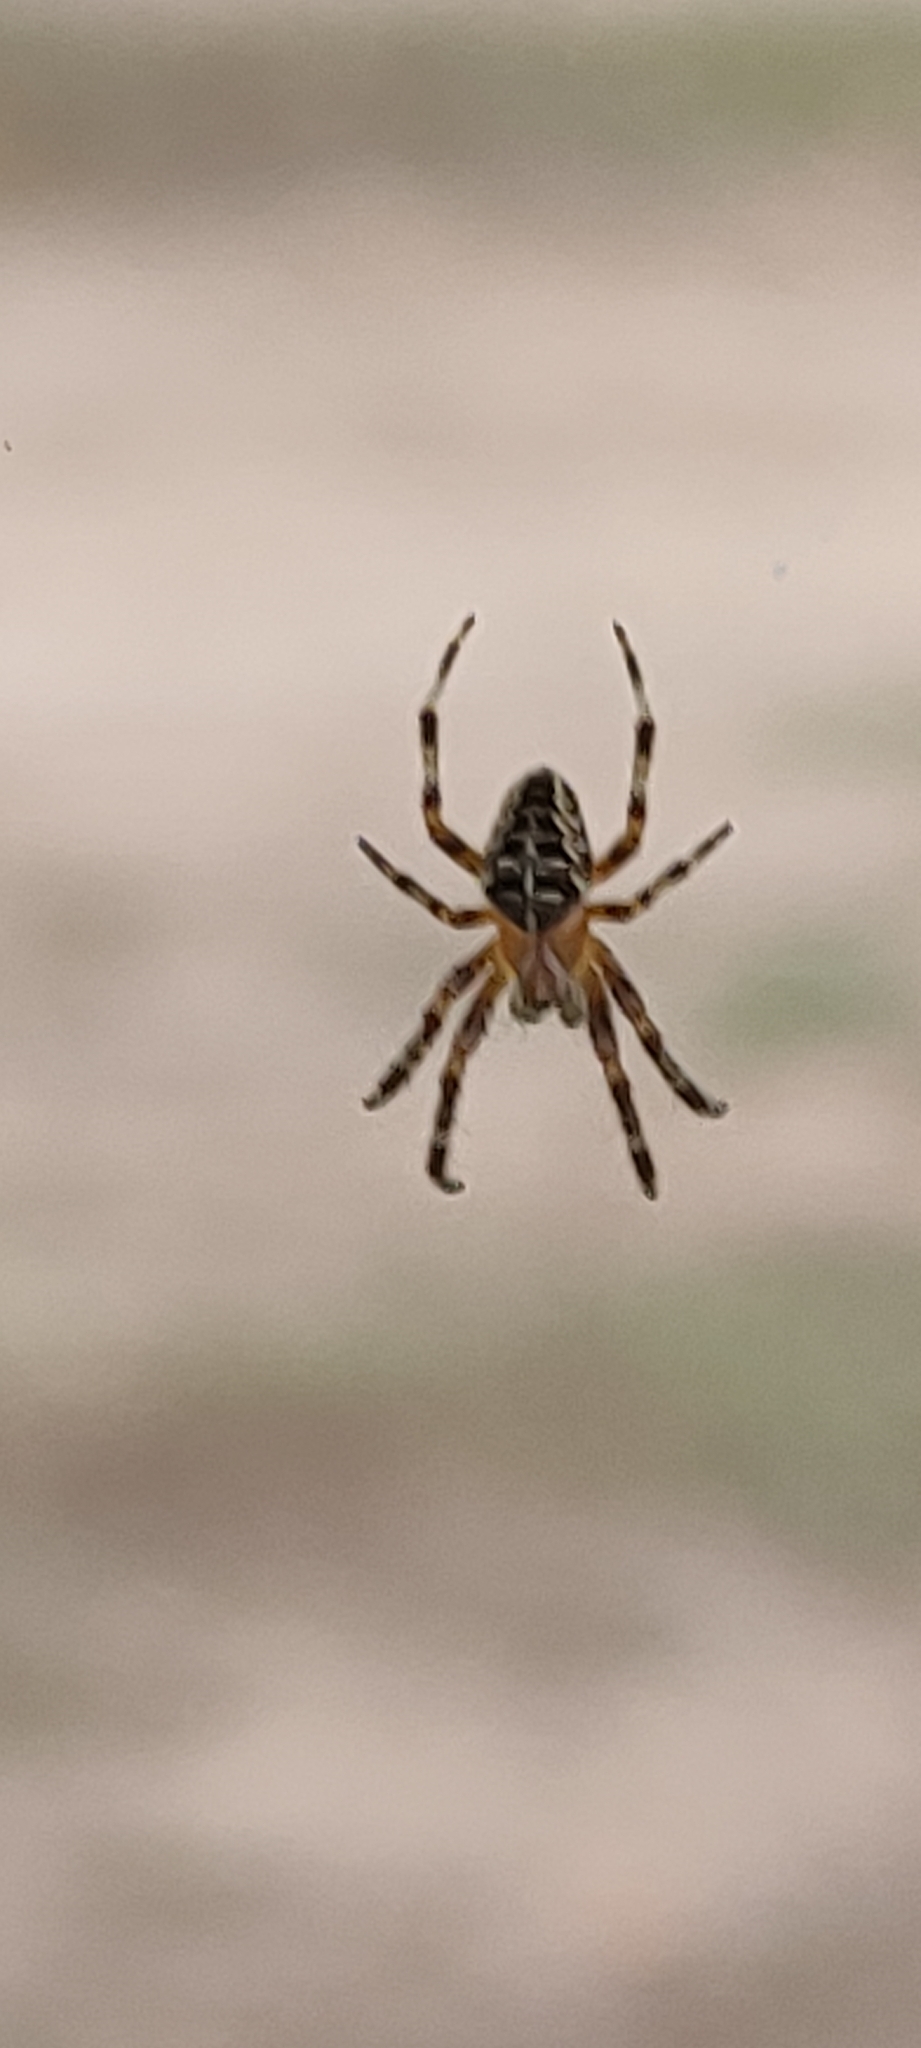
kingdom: Animalia
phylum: Arthropoda
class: Arachnida
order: Araneae
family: Araneidae
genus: Araneus
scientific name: Araneus diadematus
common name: Cross orbweaver
